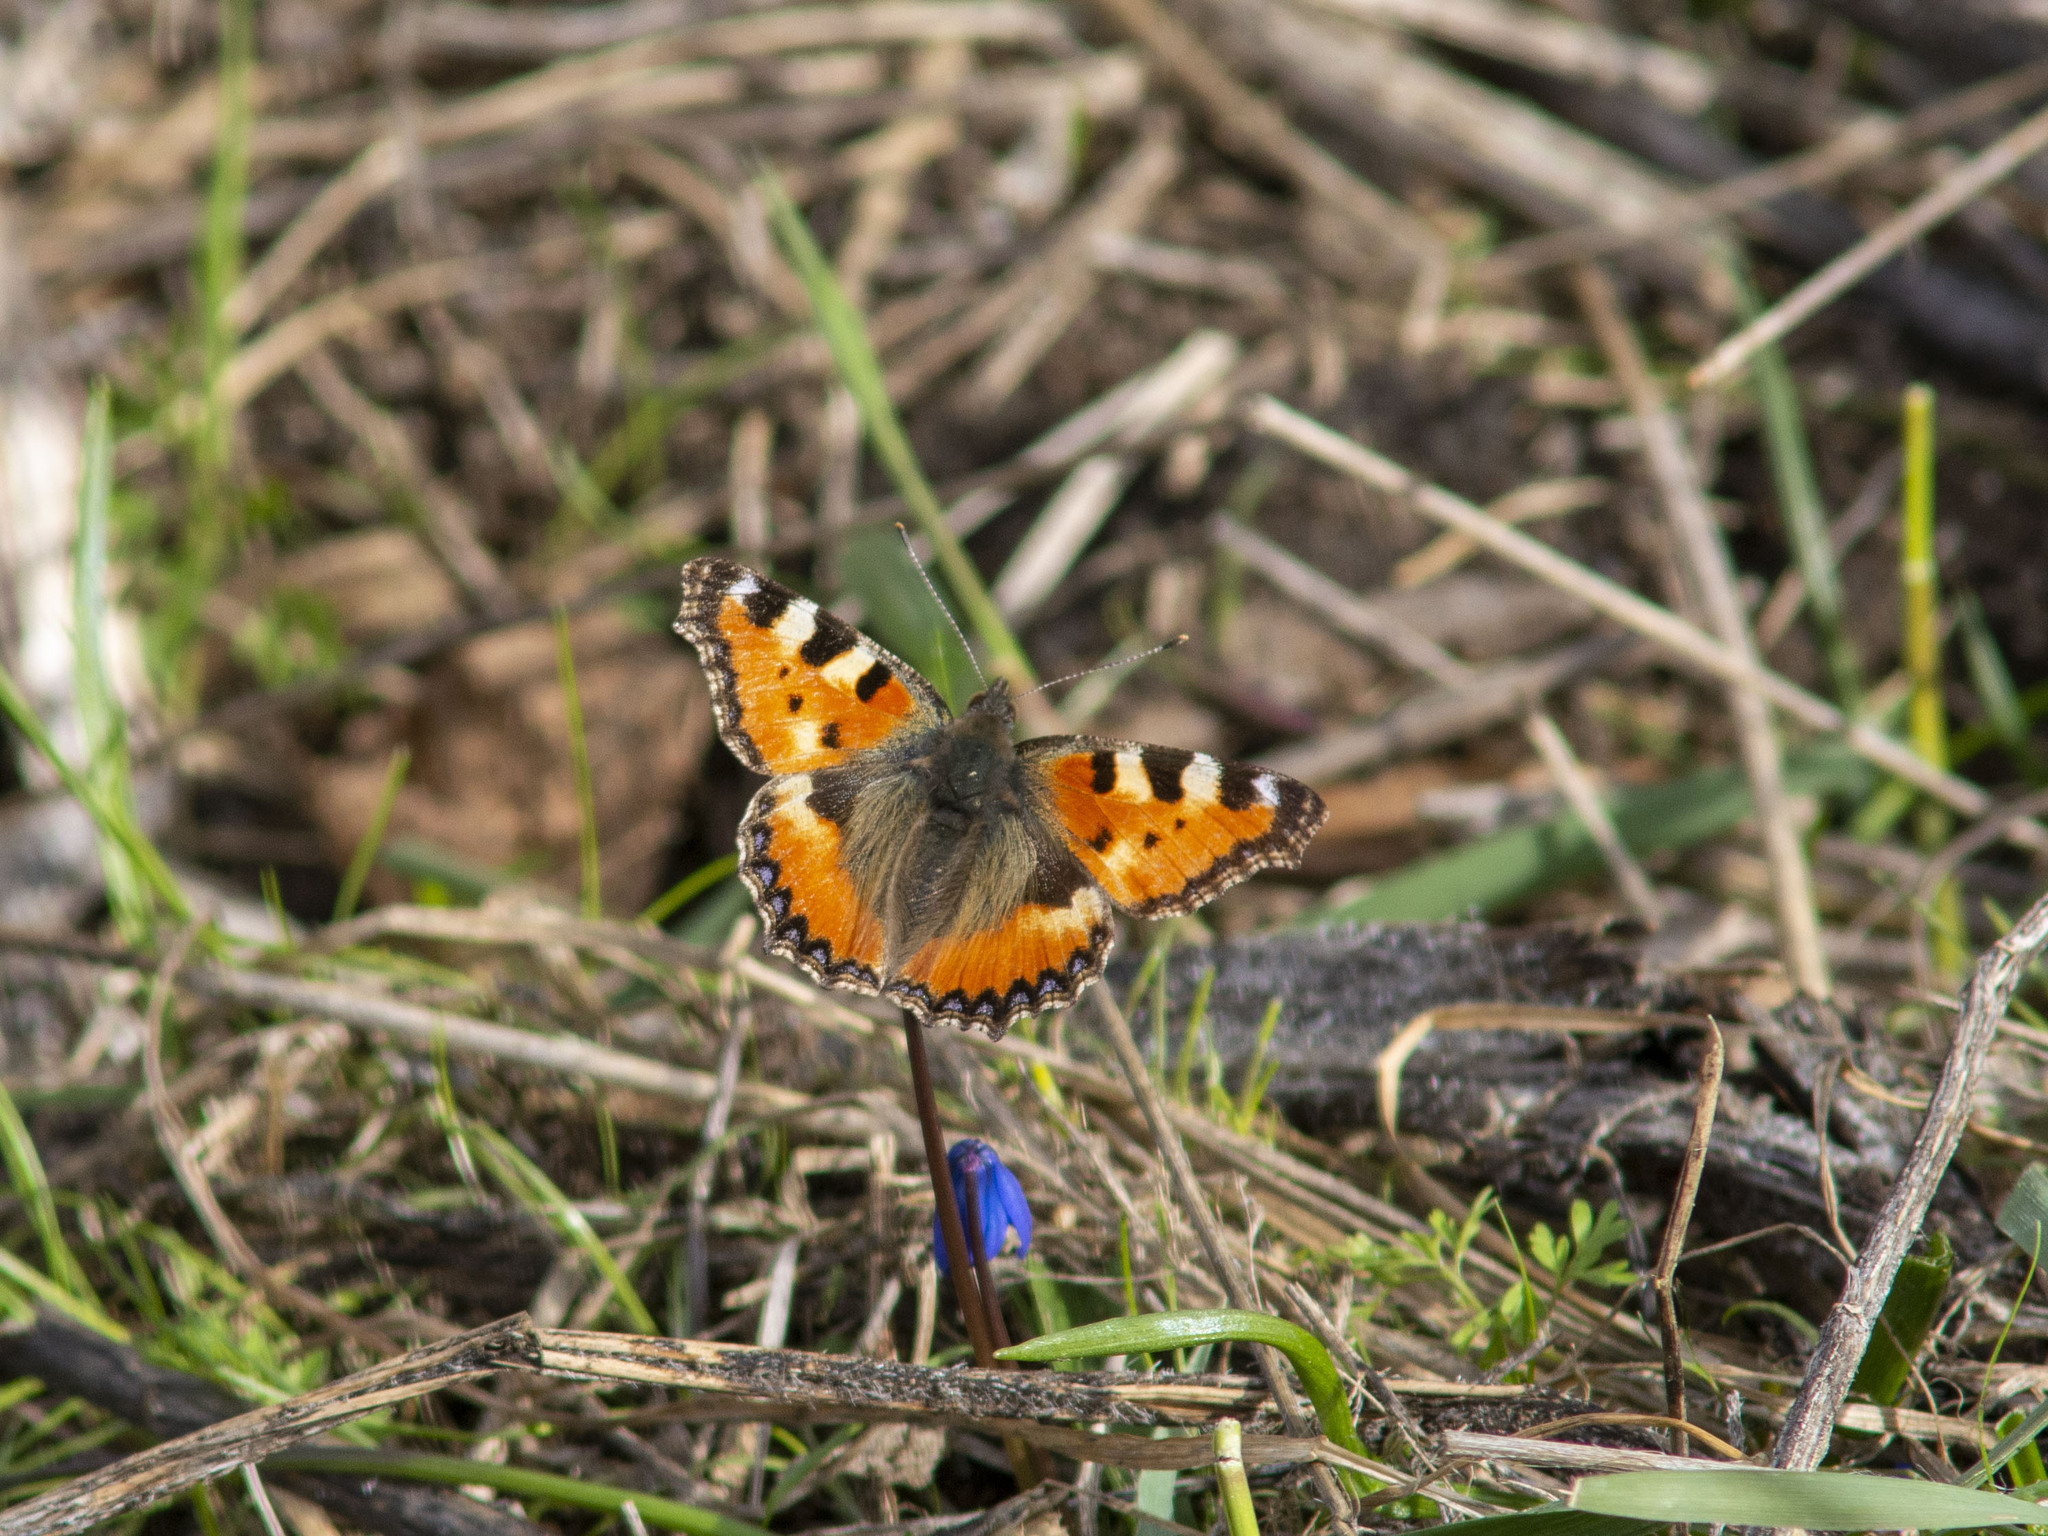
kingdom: Animalia
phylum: Arthropoda
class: Insecta
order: Lepidoptera
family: Nymphalidae
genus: Aglais
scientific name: Aglais urticae
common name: Small tortoiseshell
